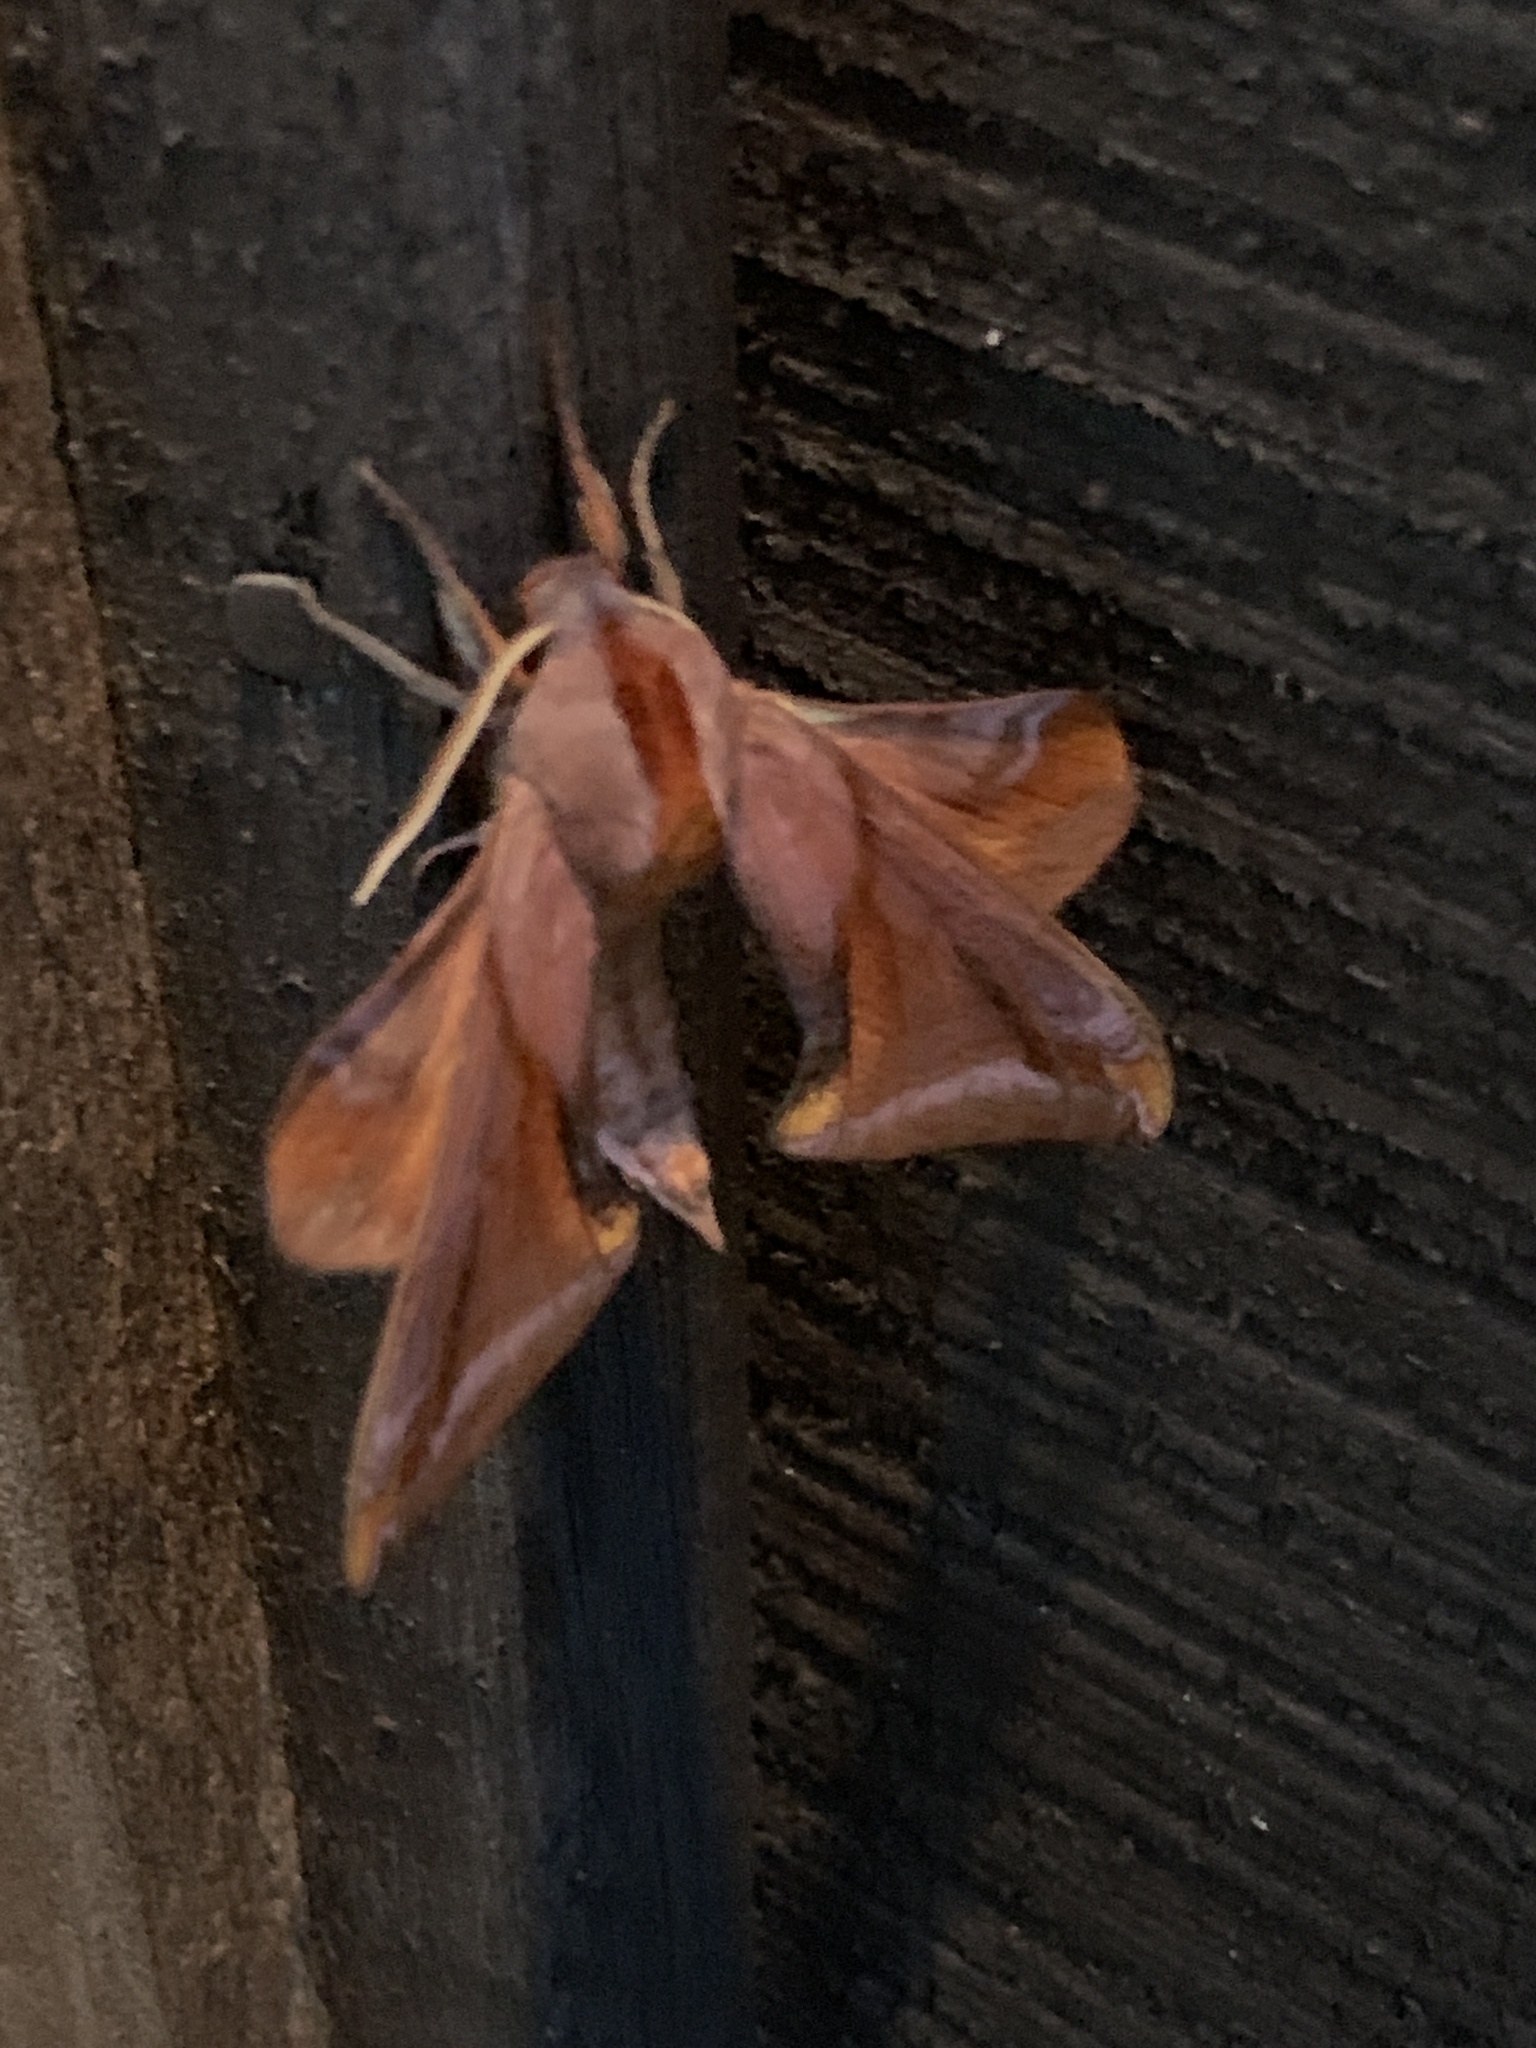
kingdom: Animalia
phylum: Arthropoda
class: Insecta
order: Lepidoptera
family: Sphingidae
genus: Paonias
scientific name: Paonias astylus
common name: Huckleberry sphinx
